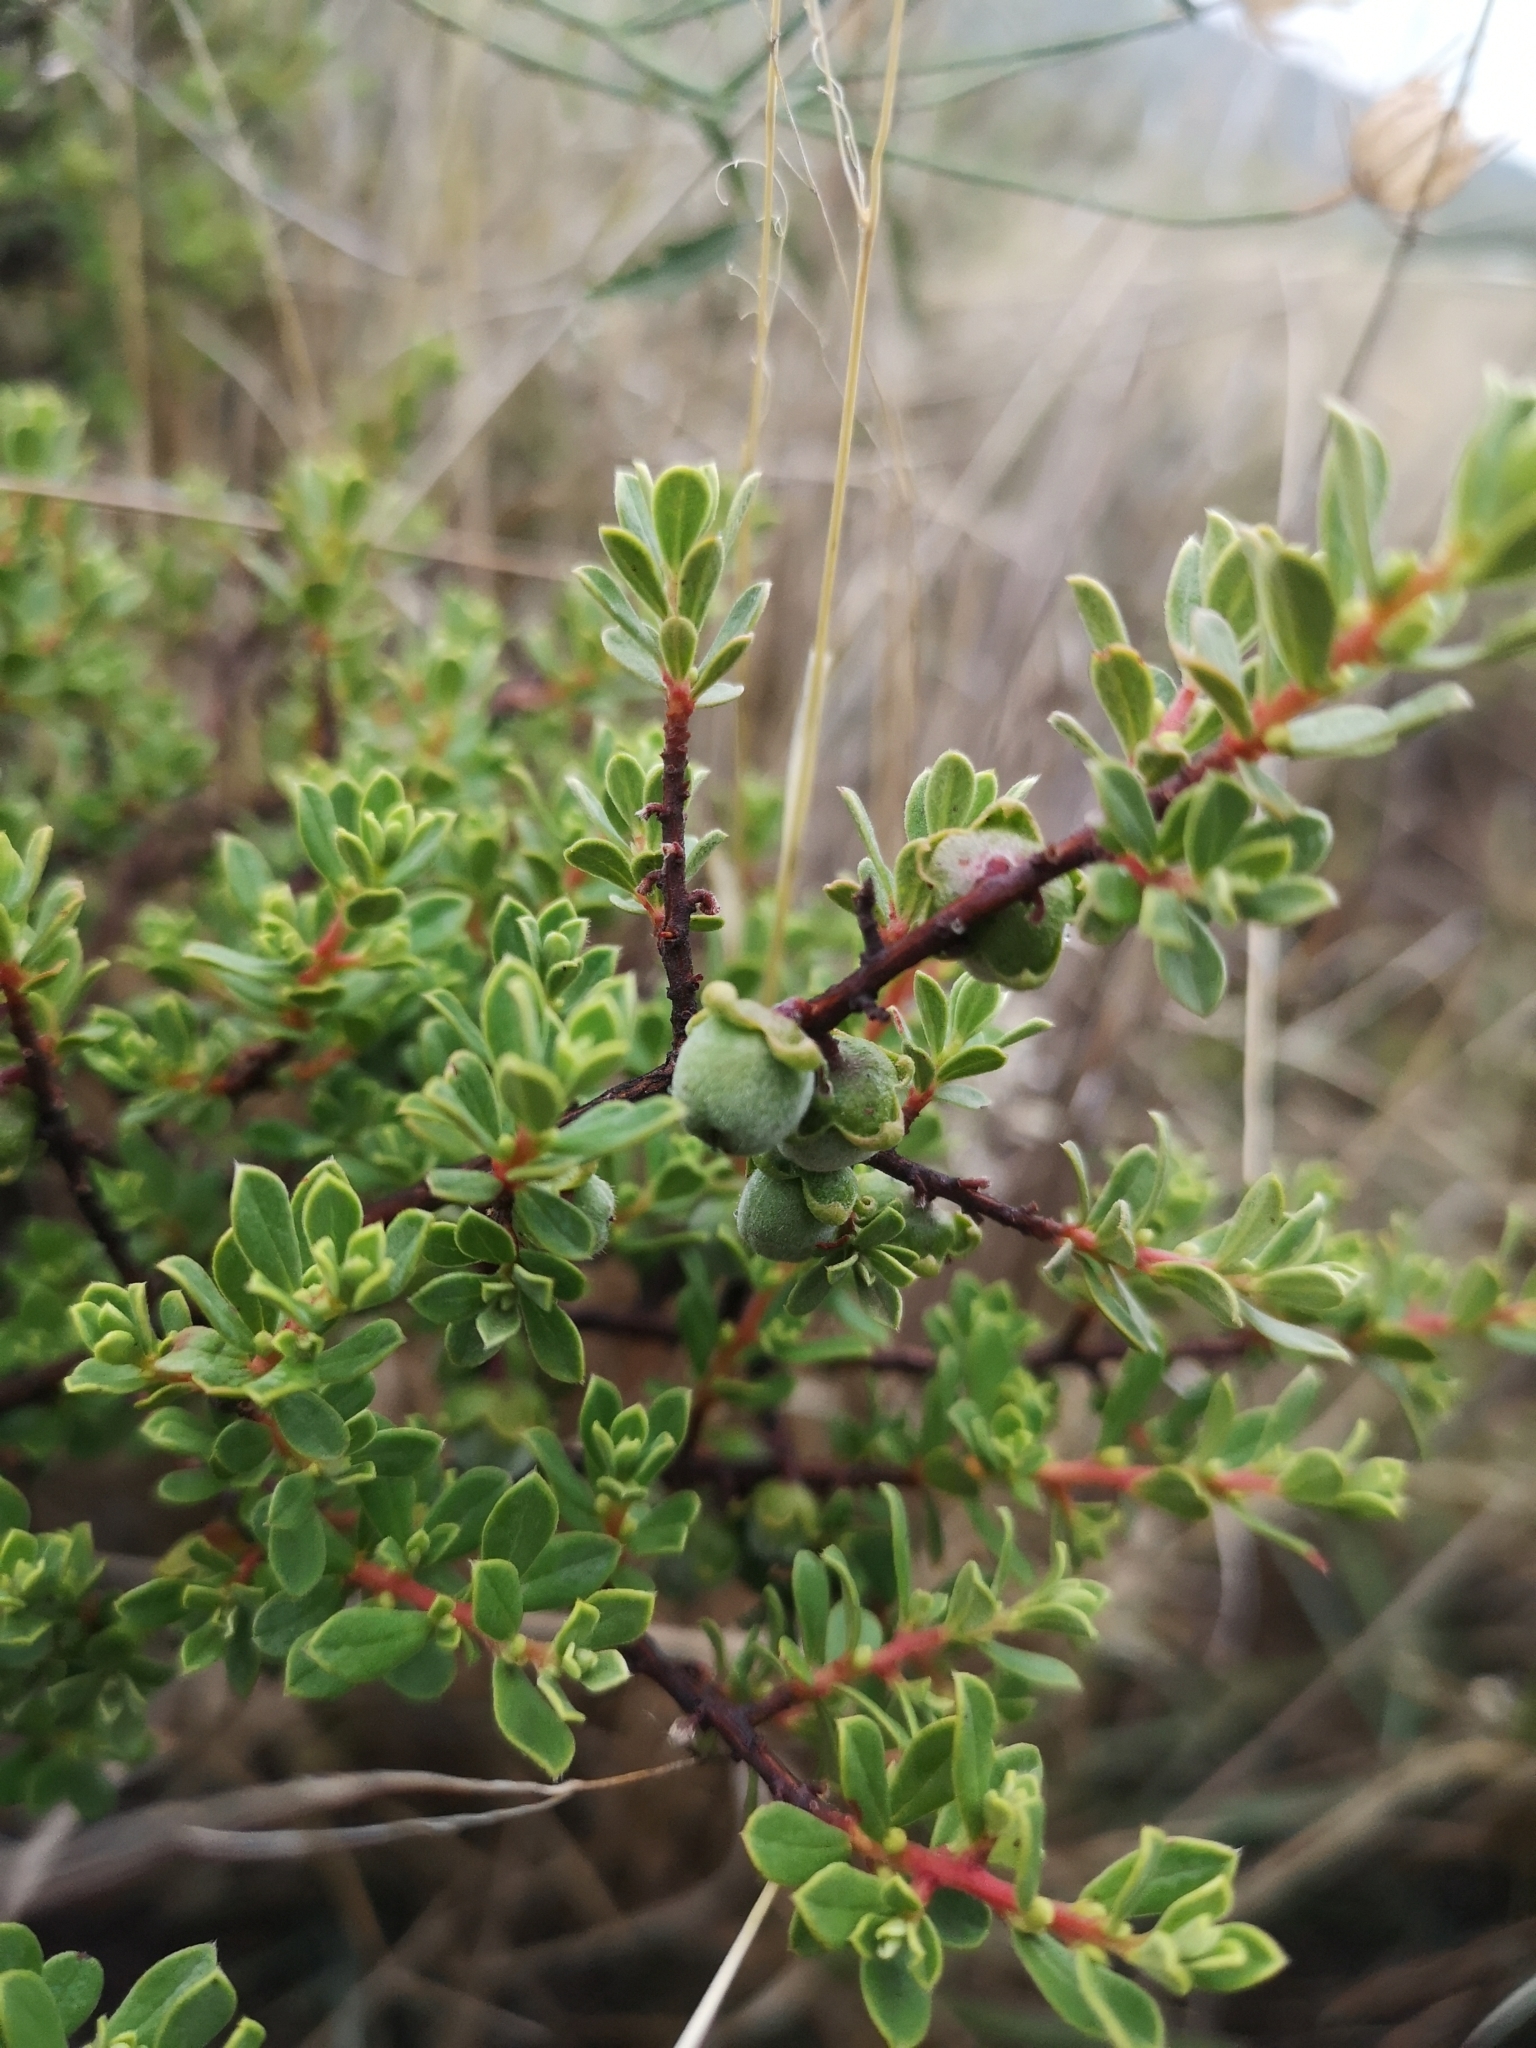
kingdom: Plantae
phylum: Tracheophyta
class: Magnoliopsida
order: Ericales
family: Ebenaceae
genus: Diospyros
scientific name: Diospyros pubescens
